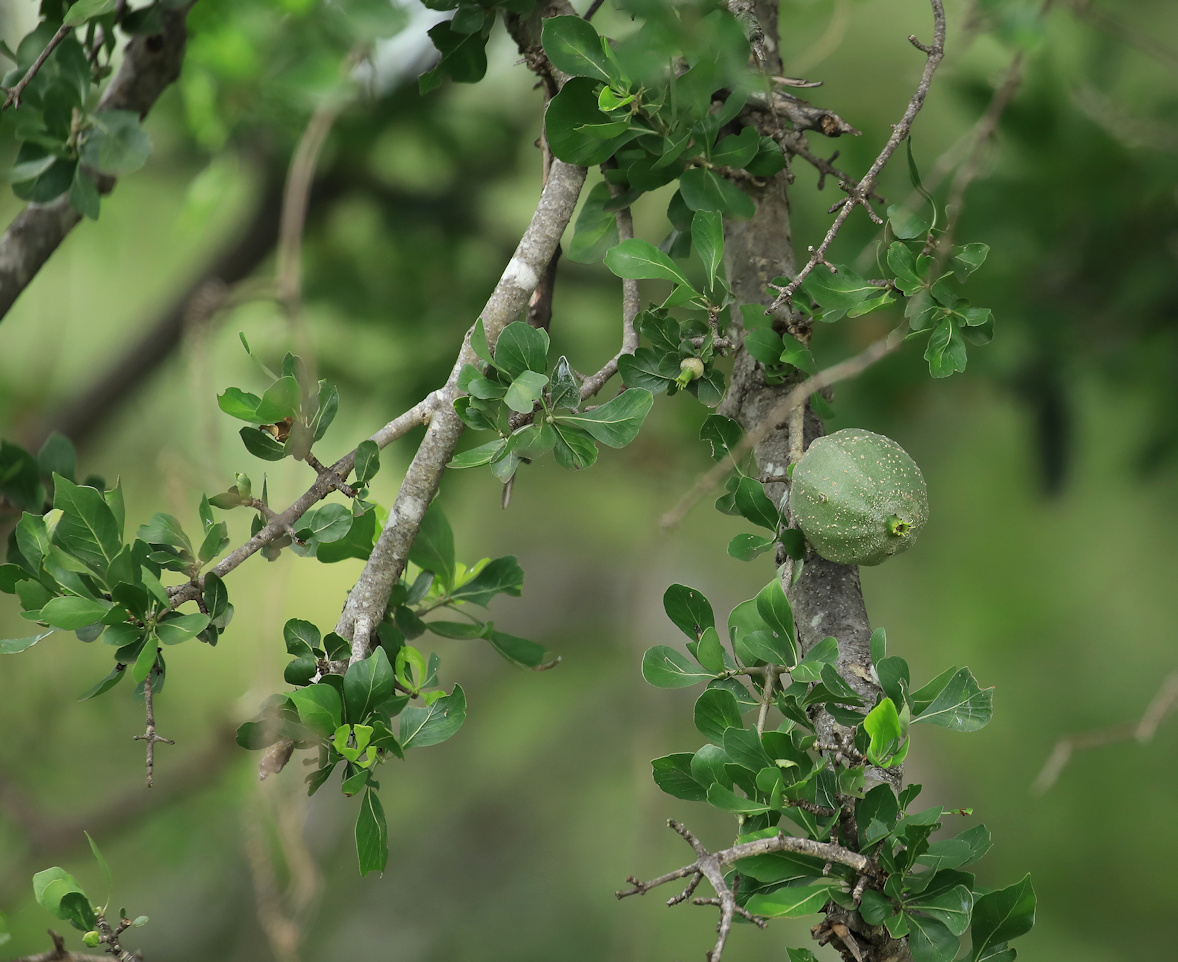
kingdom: Plantae
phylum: Tracheophyta
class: Magnoliopsida
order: Gentianales
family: Rubiaceae
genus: Gardenia
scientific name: Gardenia volkensii
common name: Common gardenia
